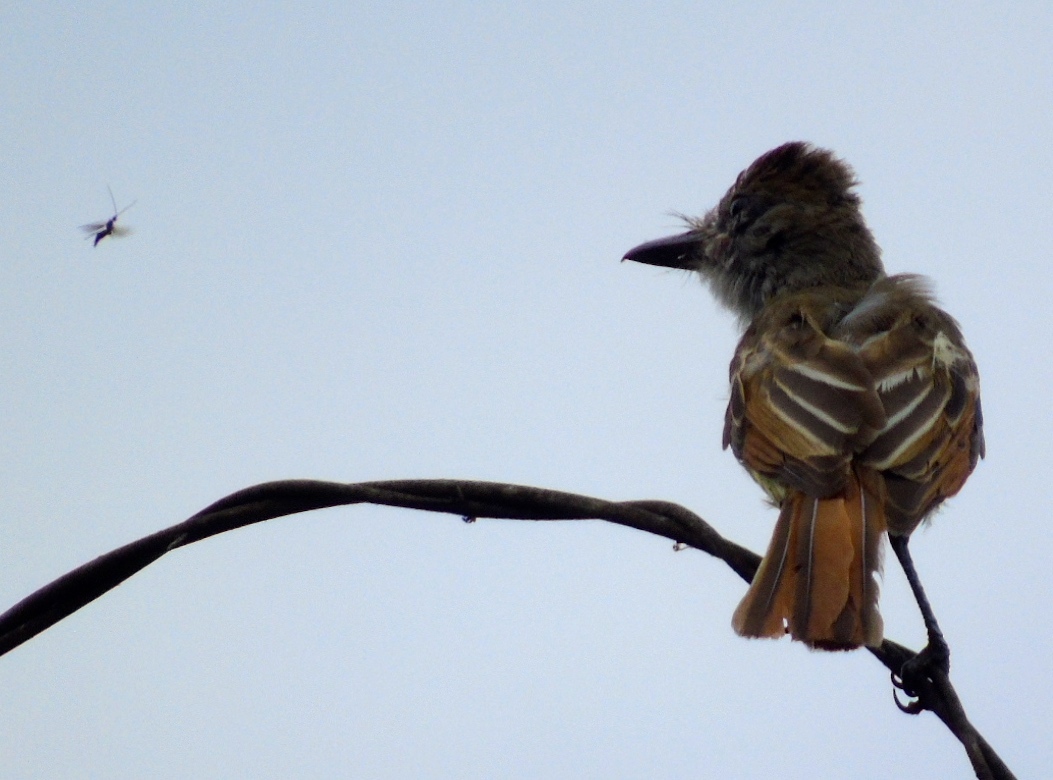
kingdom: Animalia
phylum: Chordata
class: Aves
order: Passeriformes
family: Tyrannidae
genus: Myiarchus
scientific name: Myiarchus cinerascens
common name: Ash-throated flycatcher
